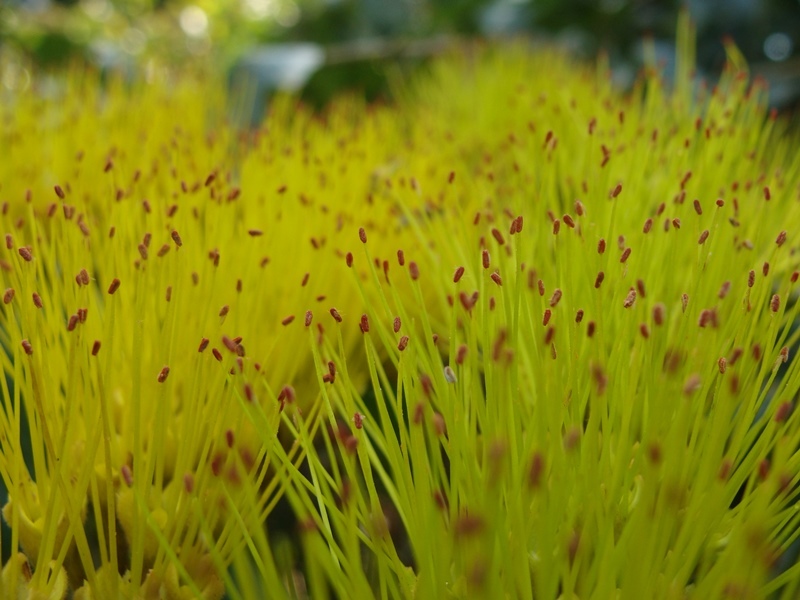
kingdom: Plantae
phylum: Tracheophyta
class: Magnoliopsida
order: Myrtales
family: Combretaceae
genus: Combretum
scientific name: Combretum fruticosum
